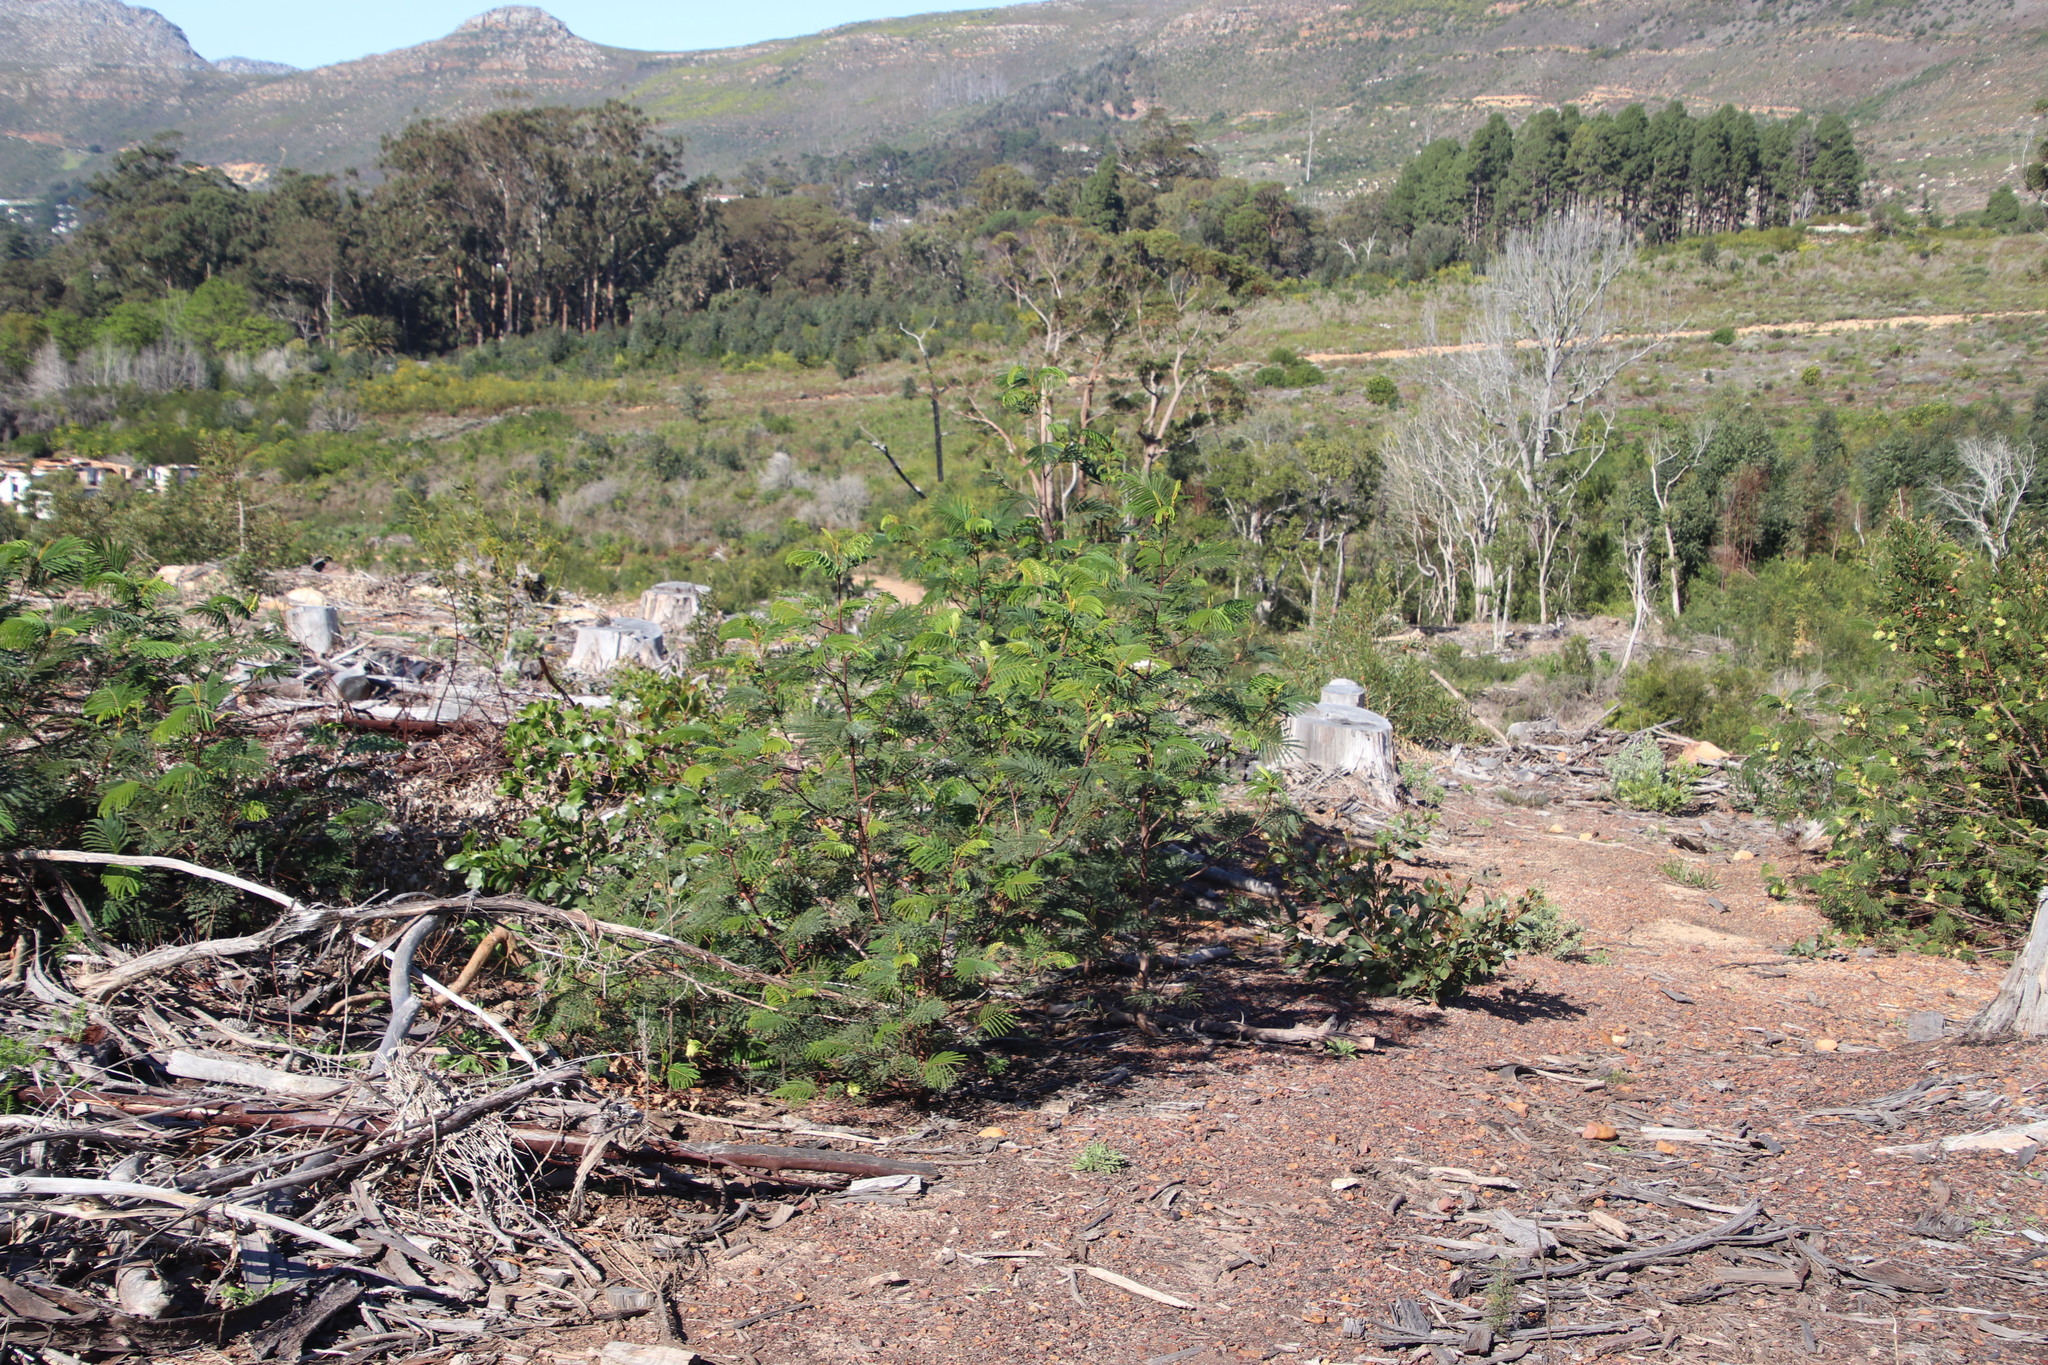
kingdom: Plantae
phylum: Tracheophyta
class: Magnoliopsida
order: Fabales
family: Fabaceae
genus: Paraserianthes
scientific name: Paraserianthes lophantha
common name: Plume albizia
